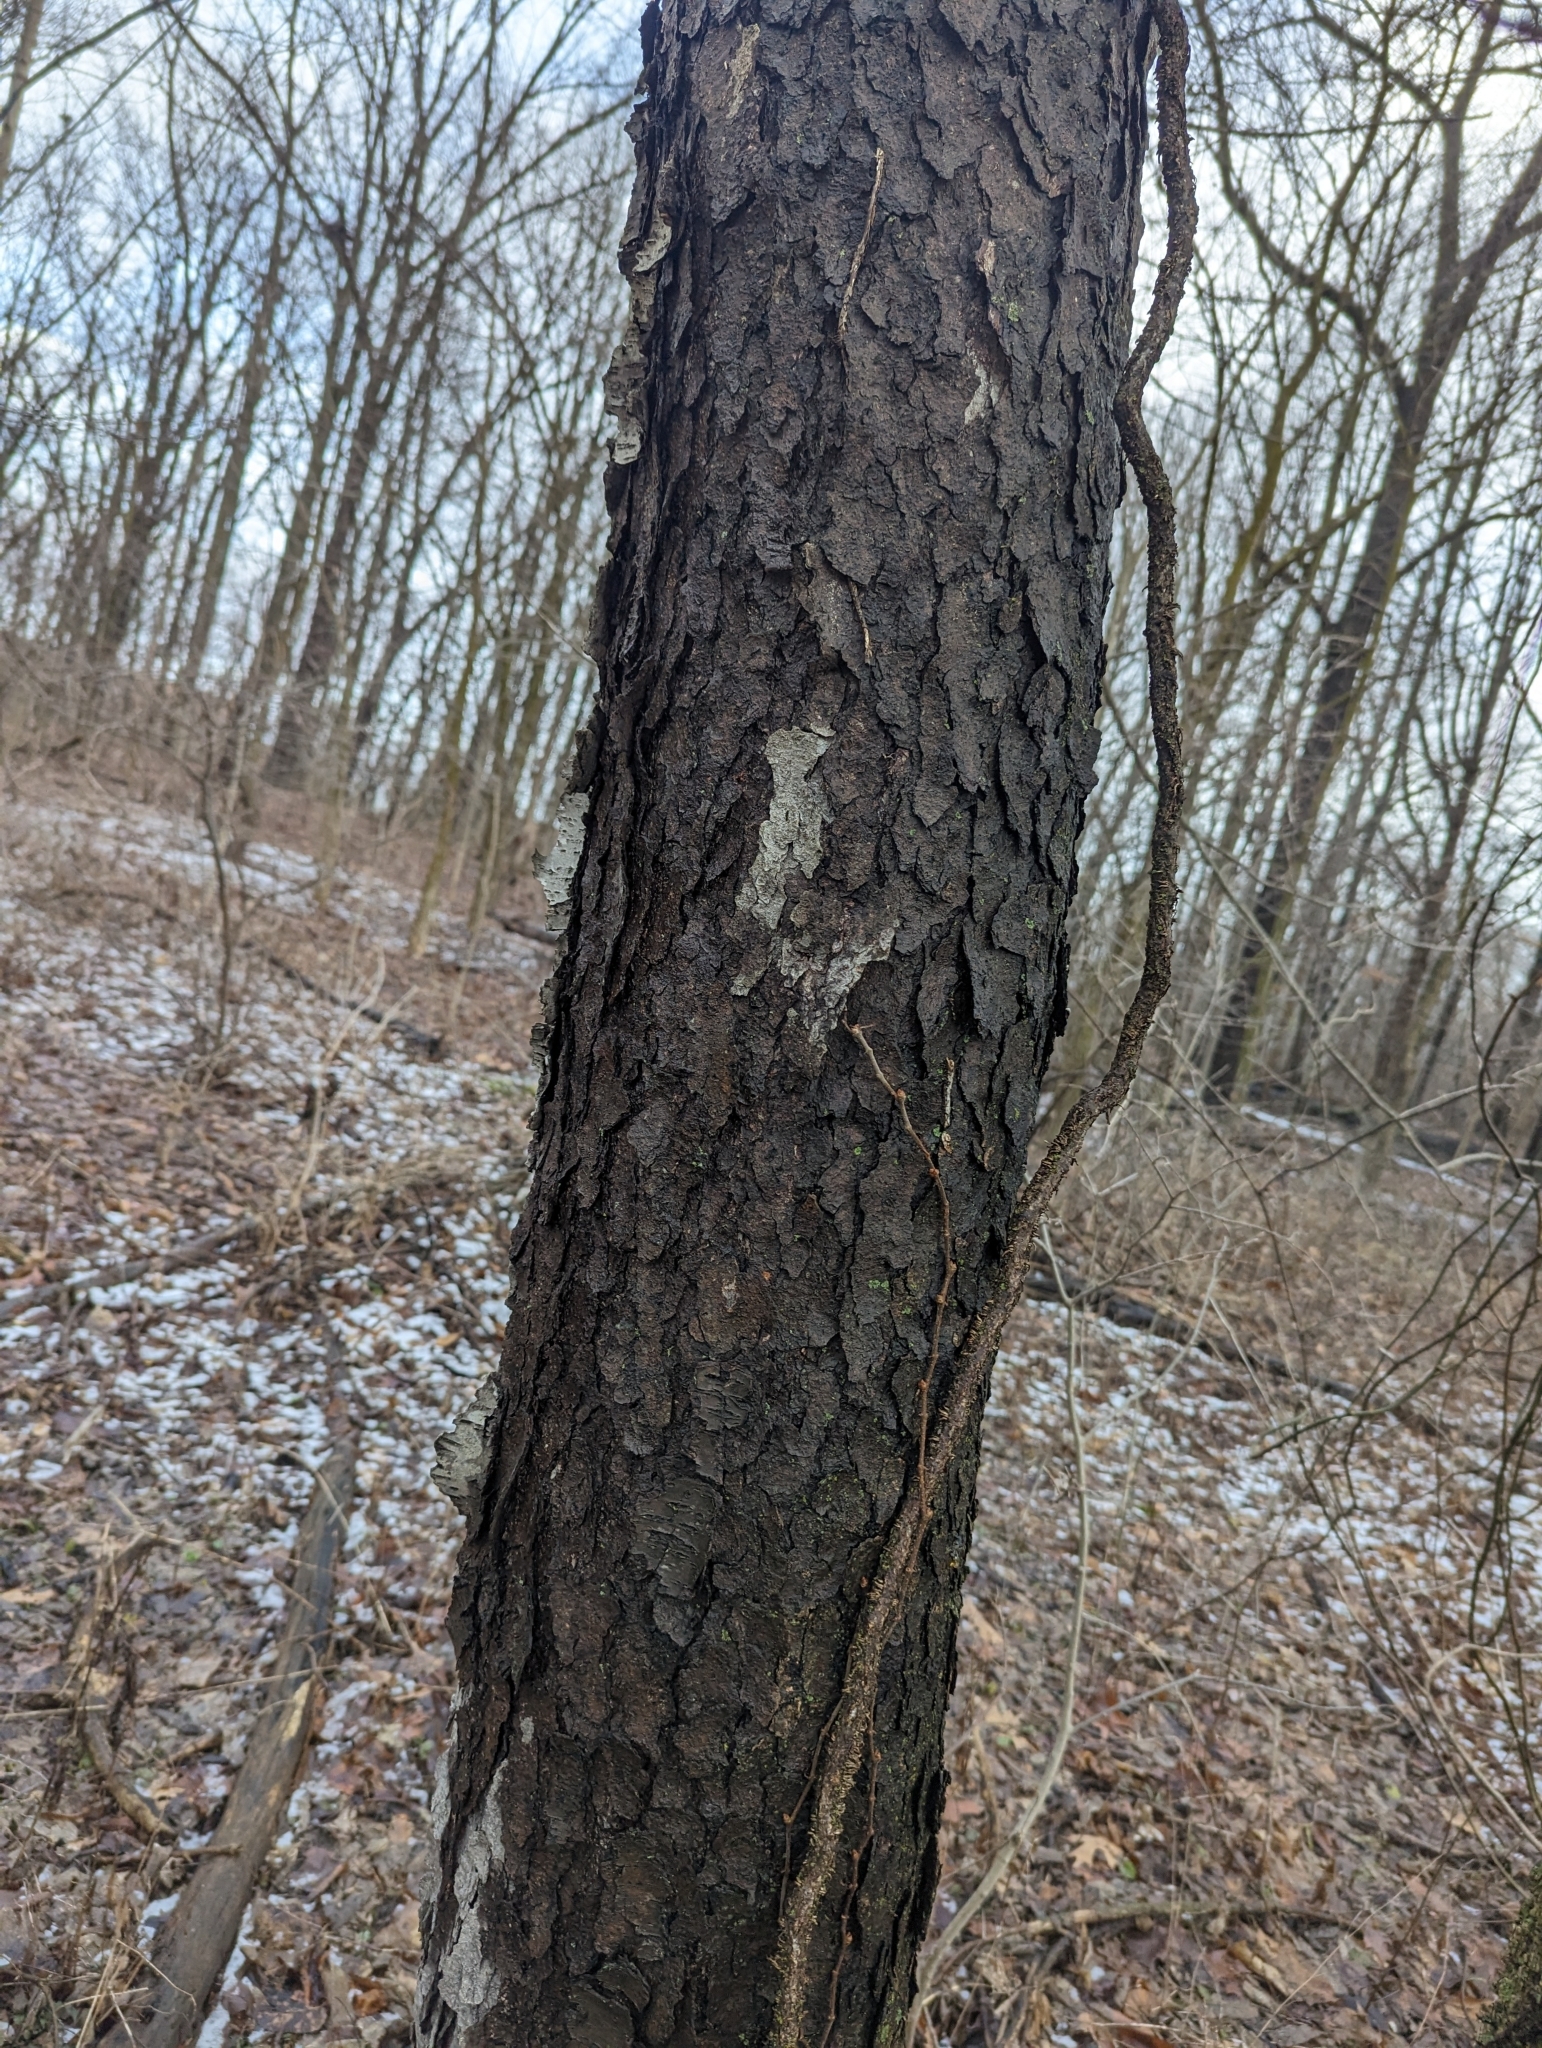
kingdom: Plantae
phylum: Tracheophyta
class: Magnoliopsida
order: Rosales
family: Rosaceae
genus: Prunus
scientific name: Prunus serotina
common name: Black cherry
